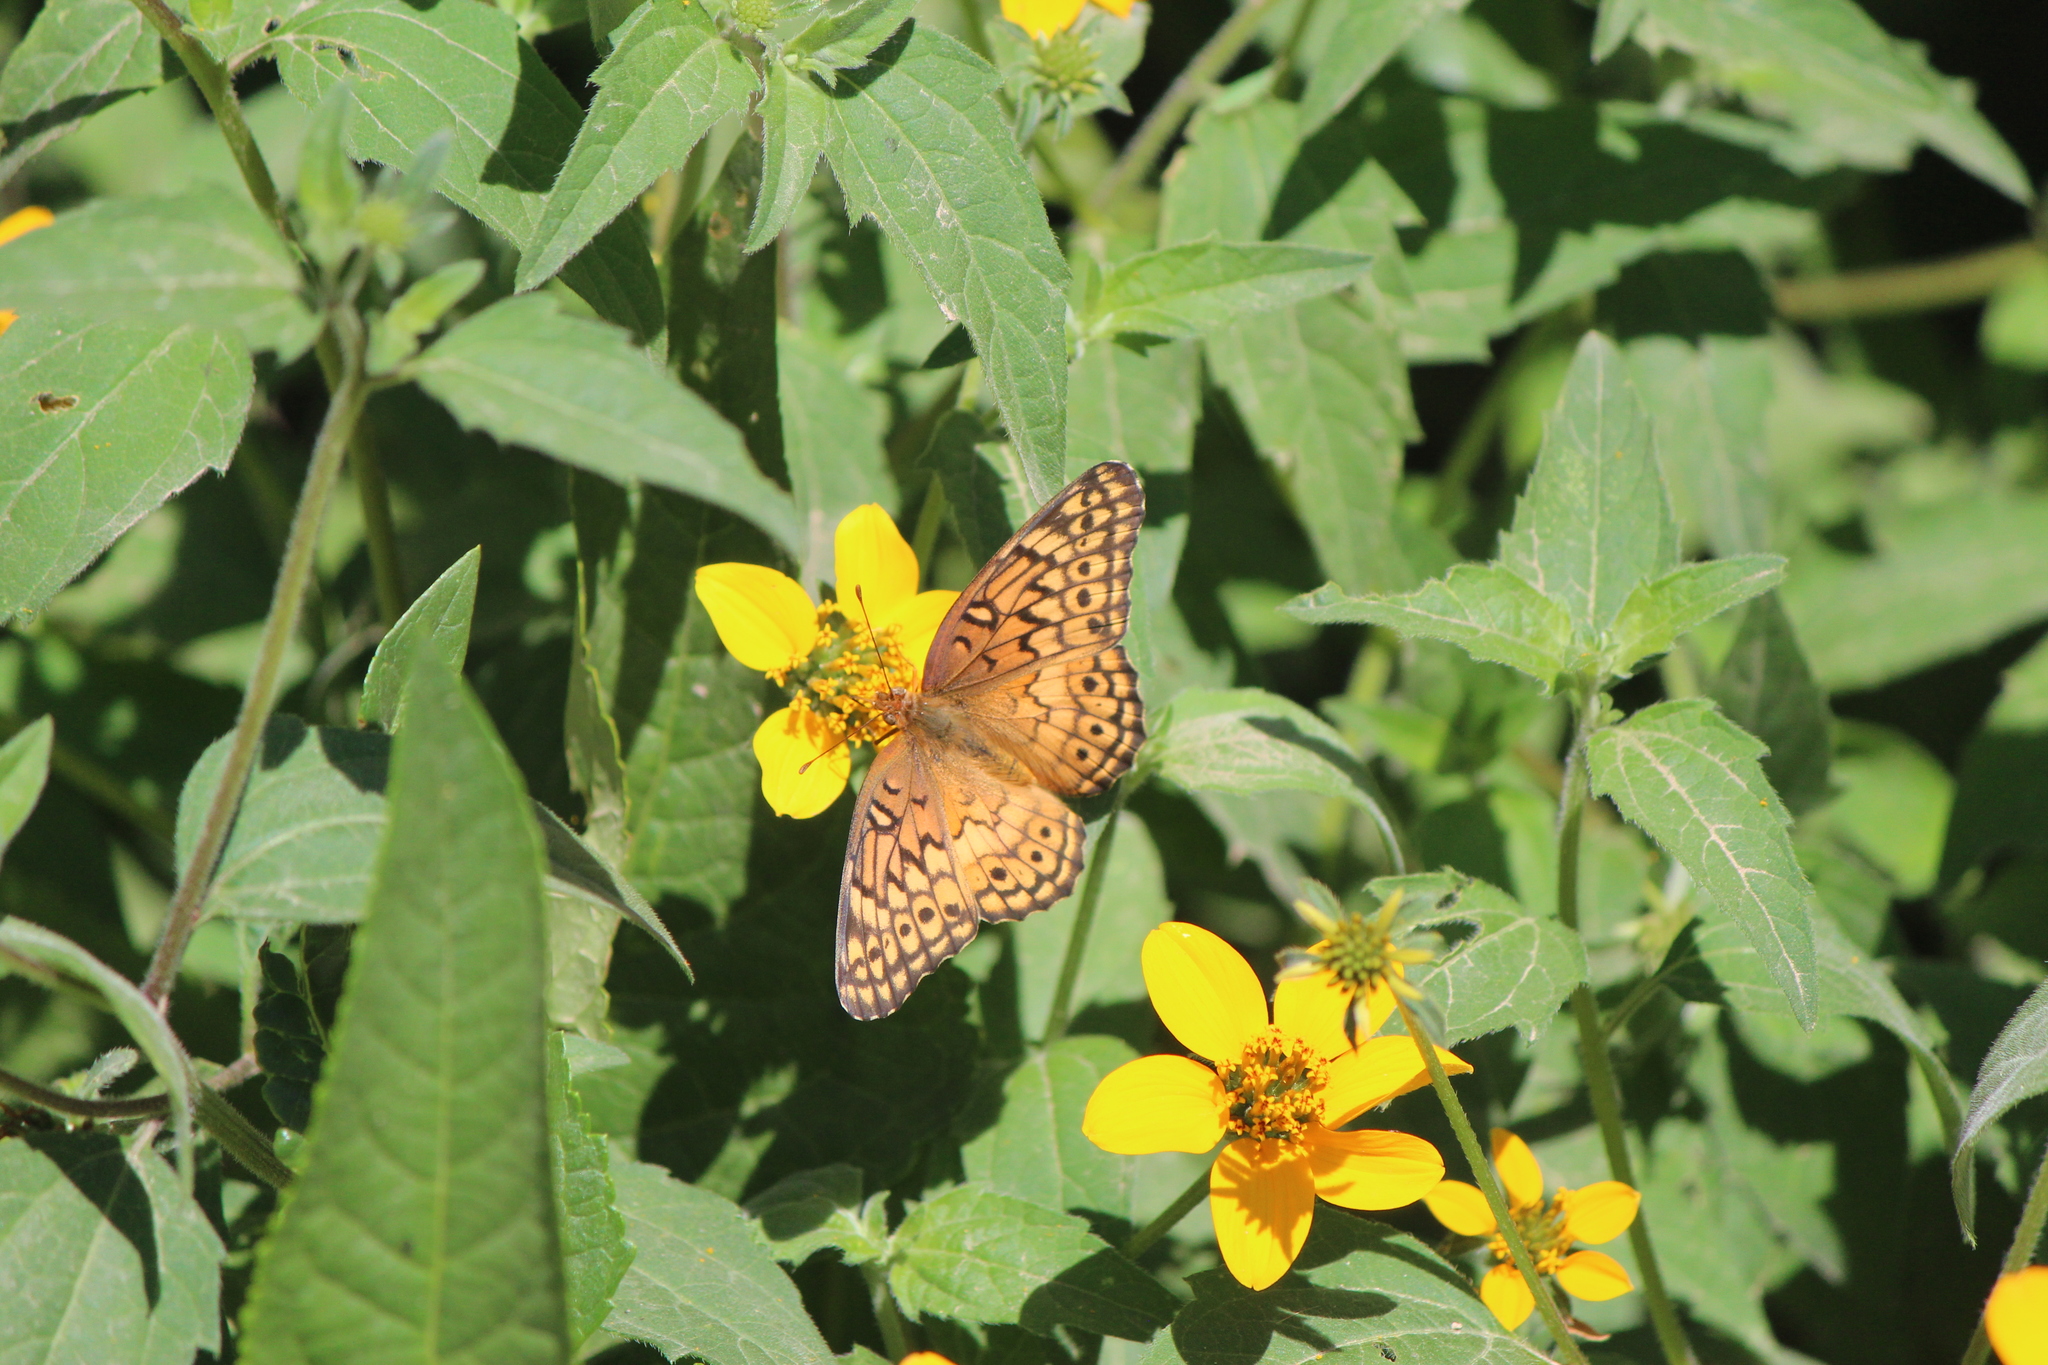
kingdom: Animalia
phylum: Arthropoda
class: Insecta
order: Lepidoptera
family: Nymphalidae
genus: Euptoieta
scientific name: Euptoieta claudia
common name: Variegated fritillary
